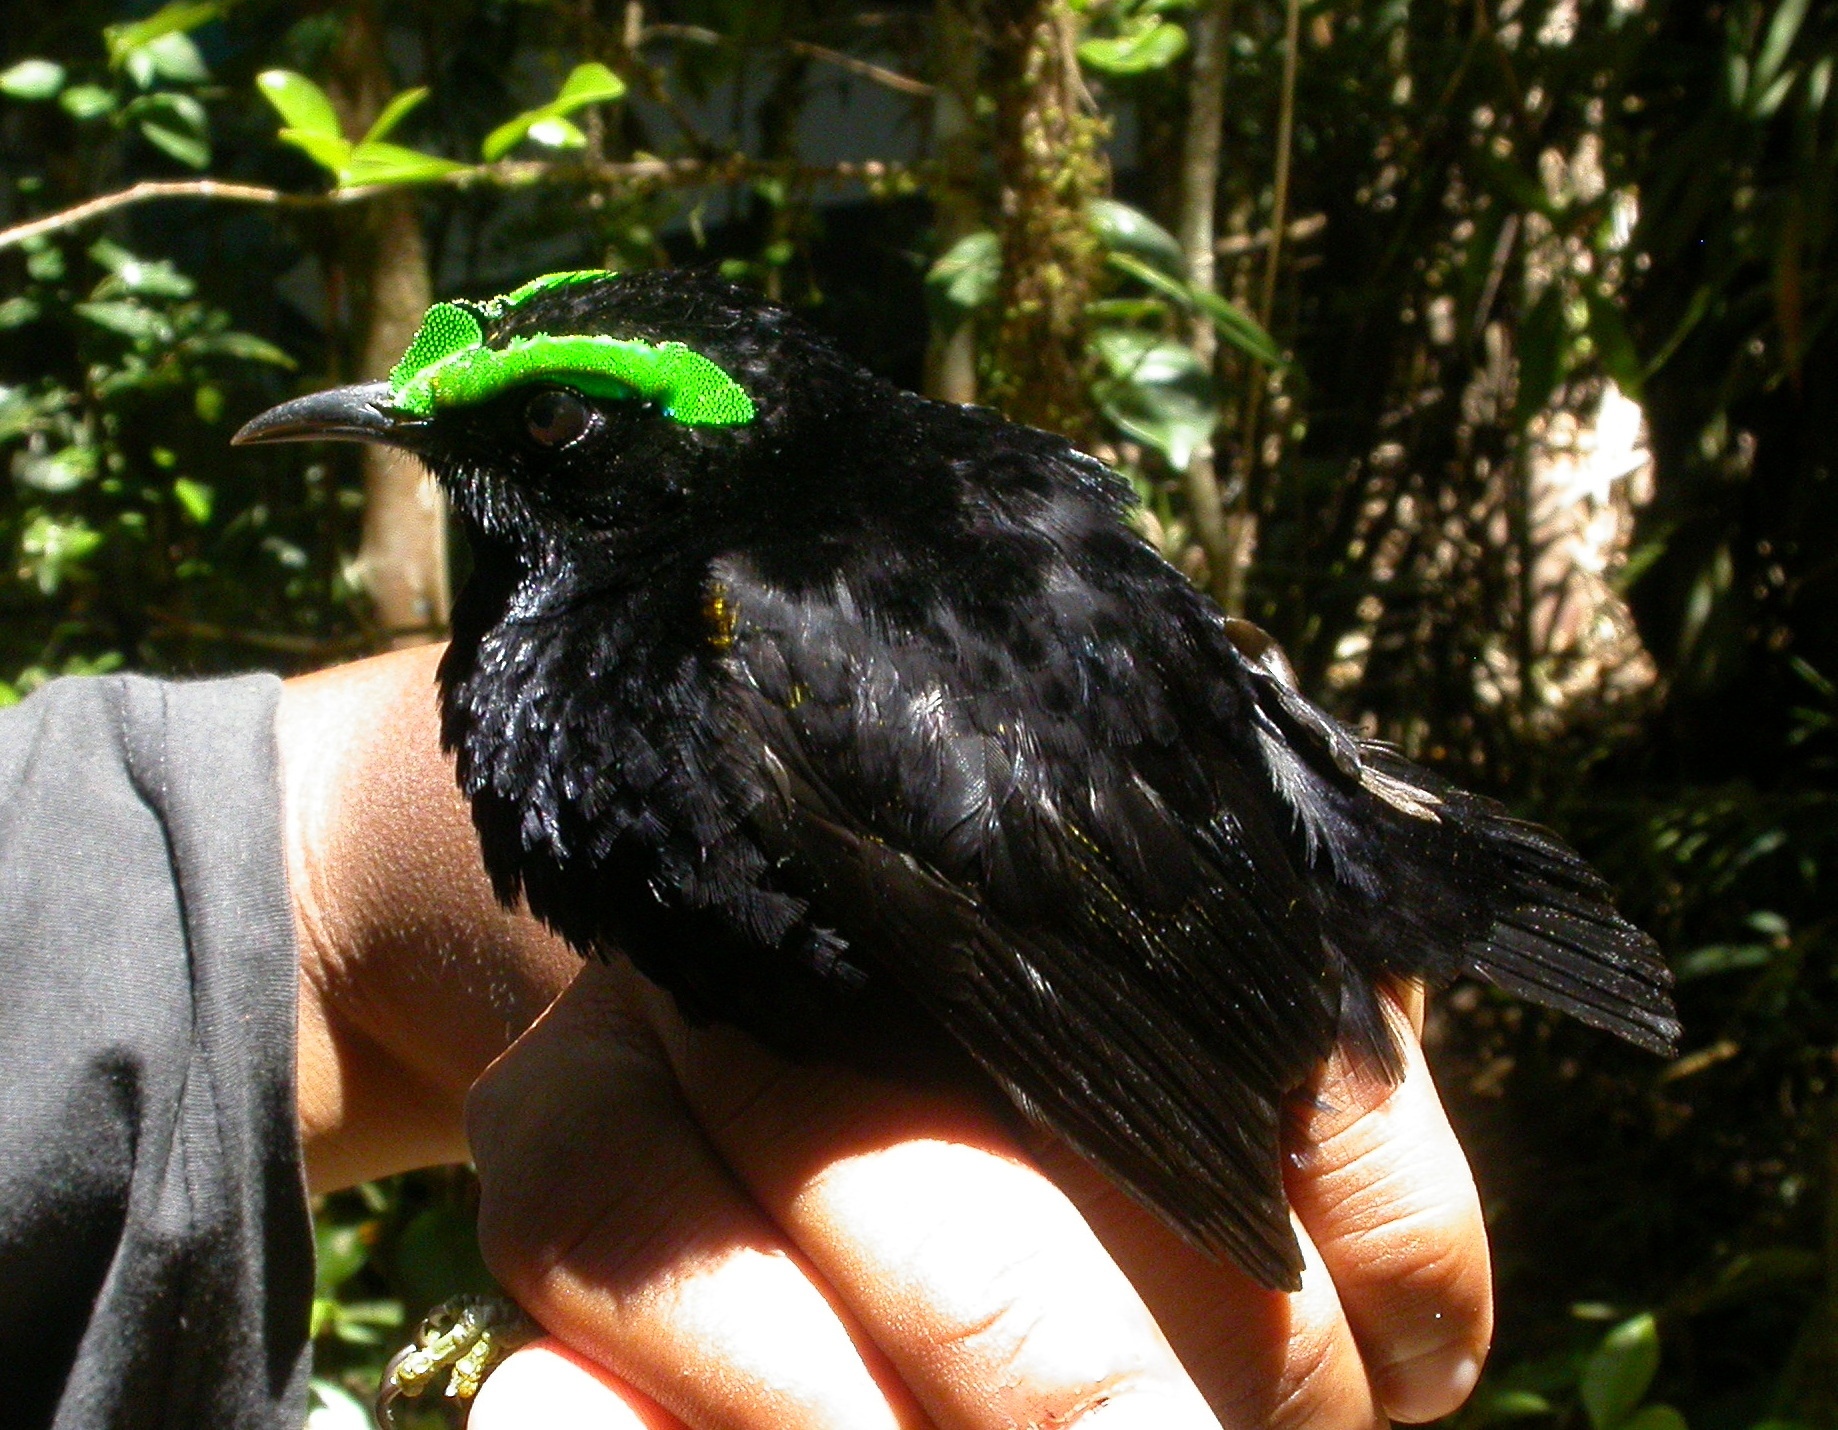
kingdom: Animalia
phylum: Chordata
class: Aves
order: Passeriformes
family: Philepittidae
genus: Philepitta
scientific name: Philepitta castanea
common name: Velvet asity
